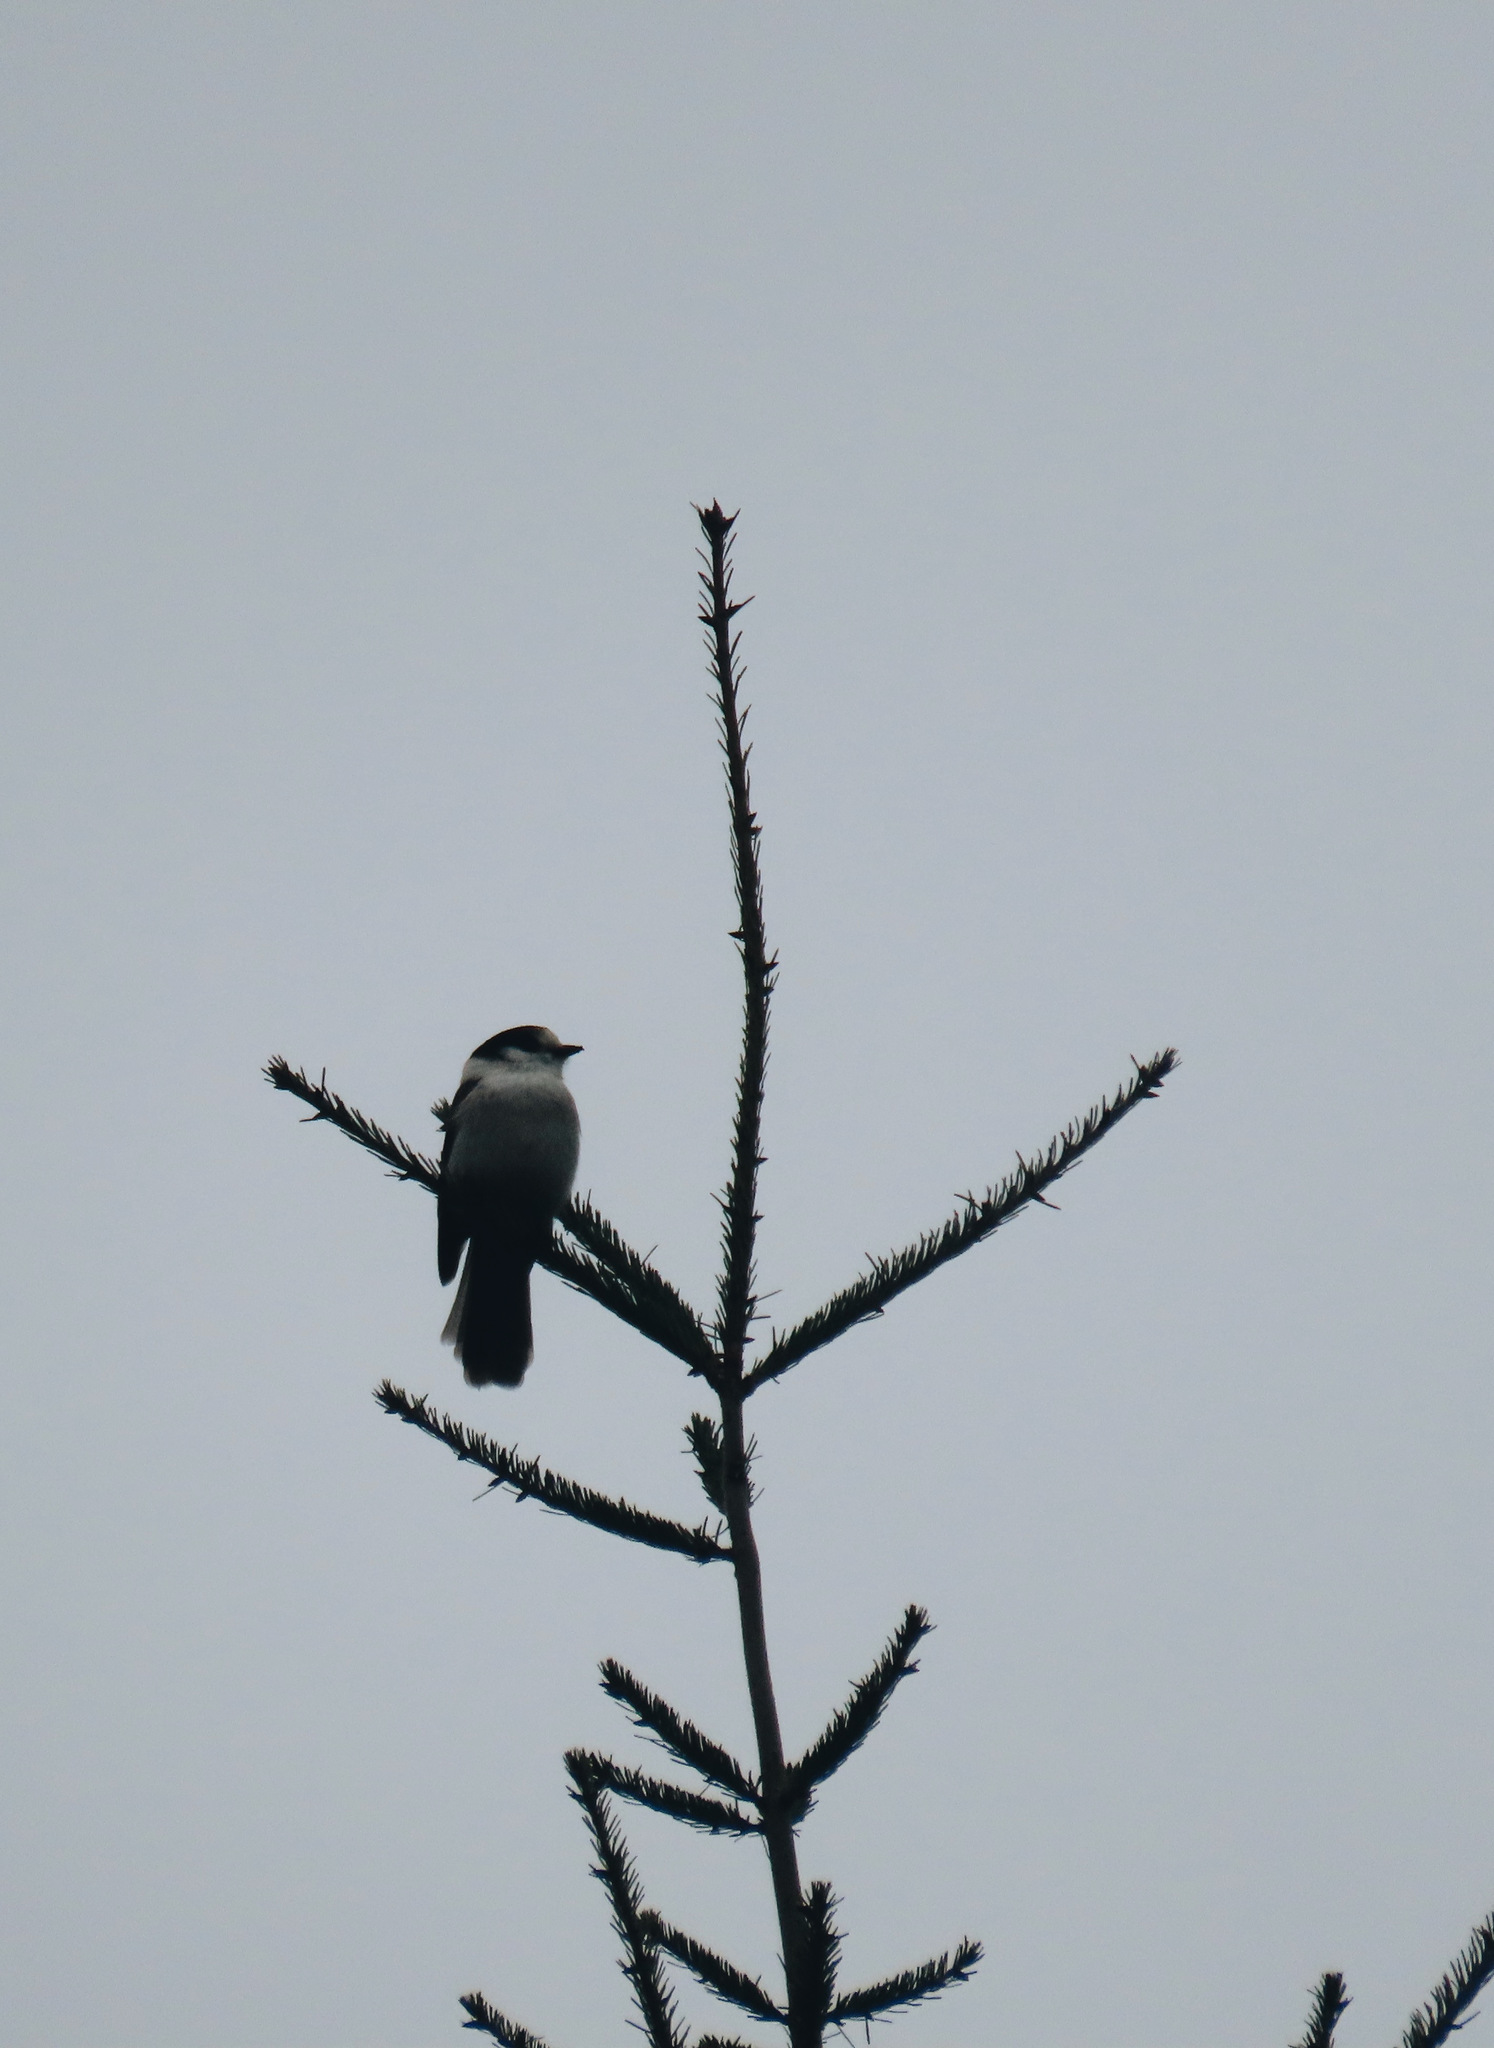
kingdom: Animalia
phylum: Chordata
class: Aves
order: Passeriformes
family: Corvidae
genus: Perisoreus
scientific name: Perisoreus canadensis
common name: Gray jay
